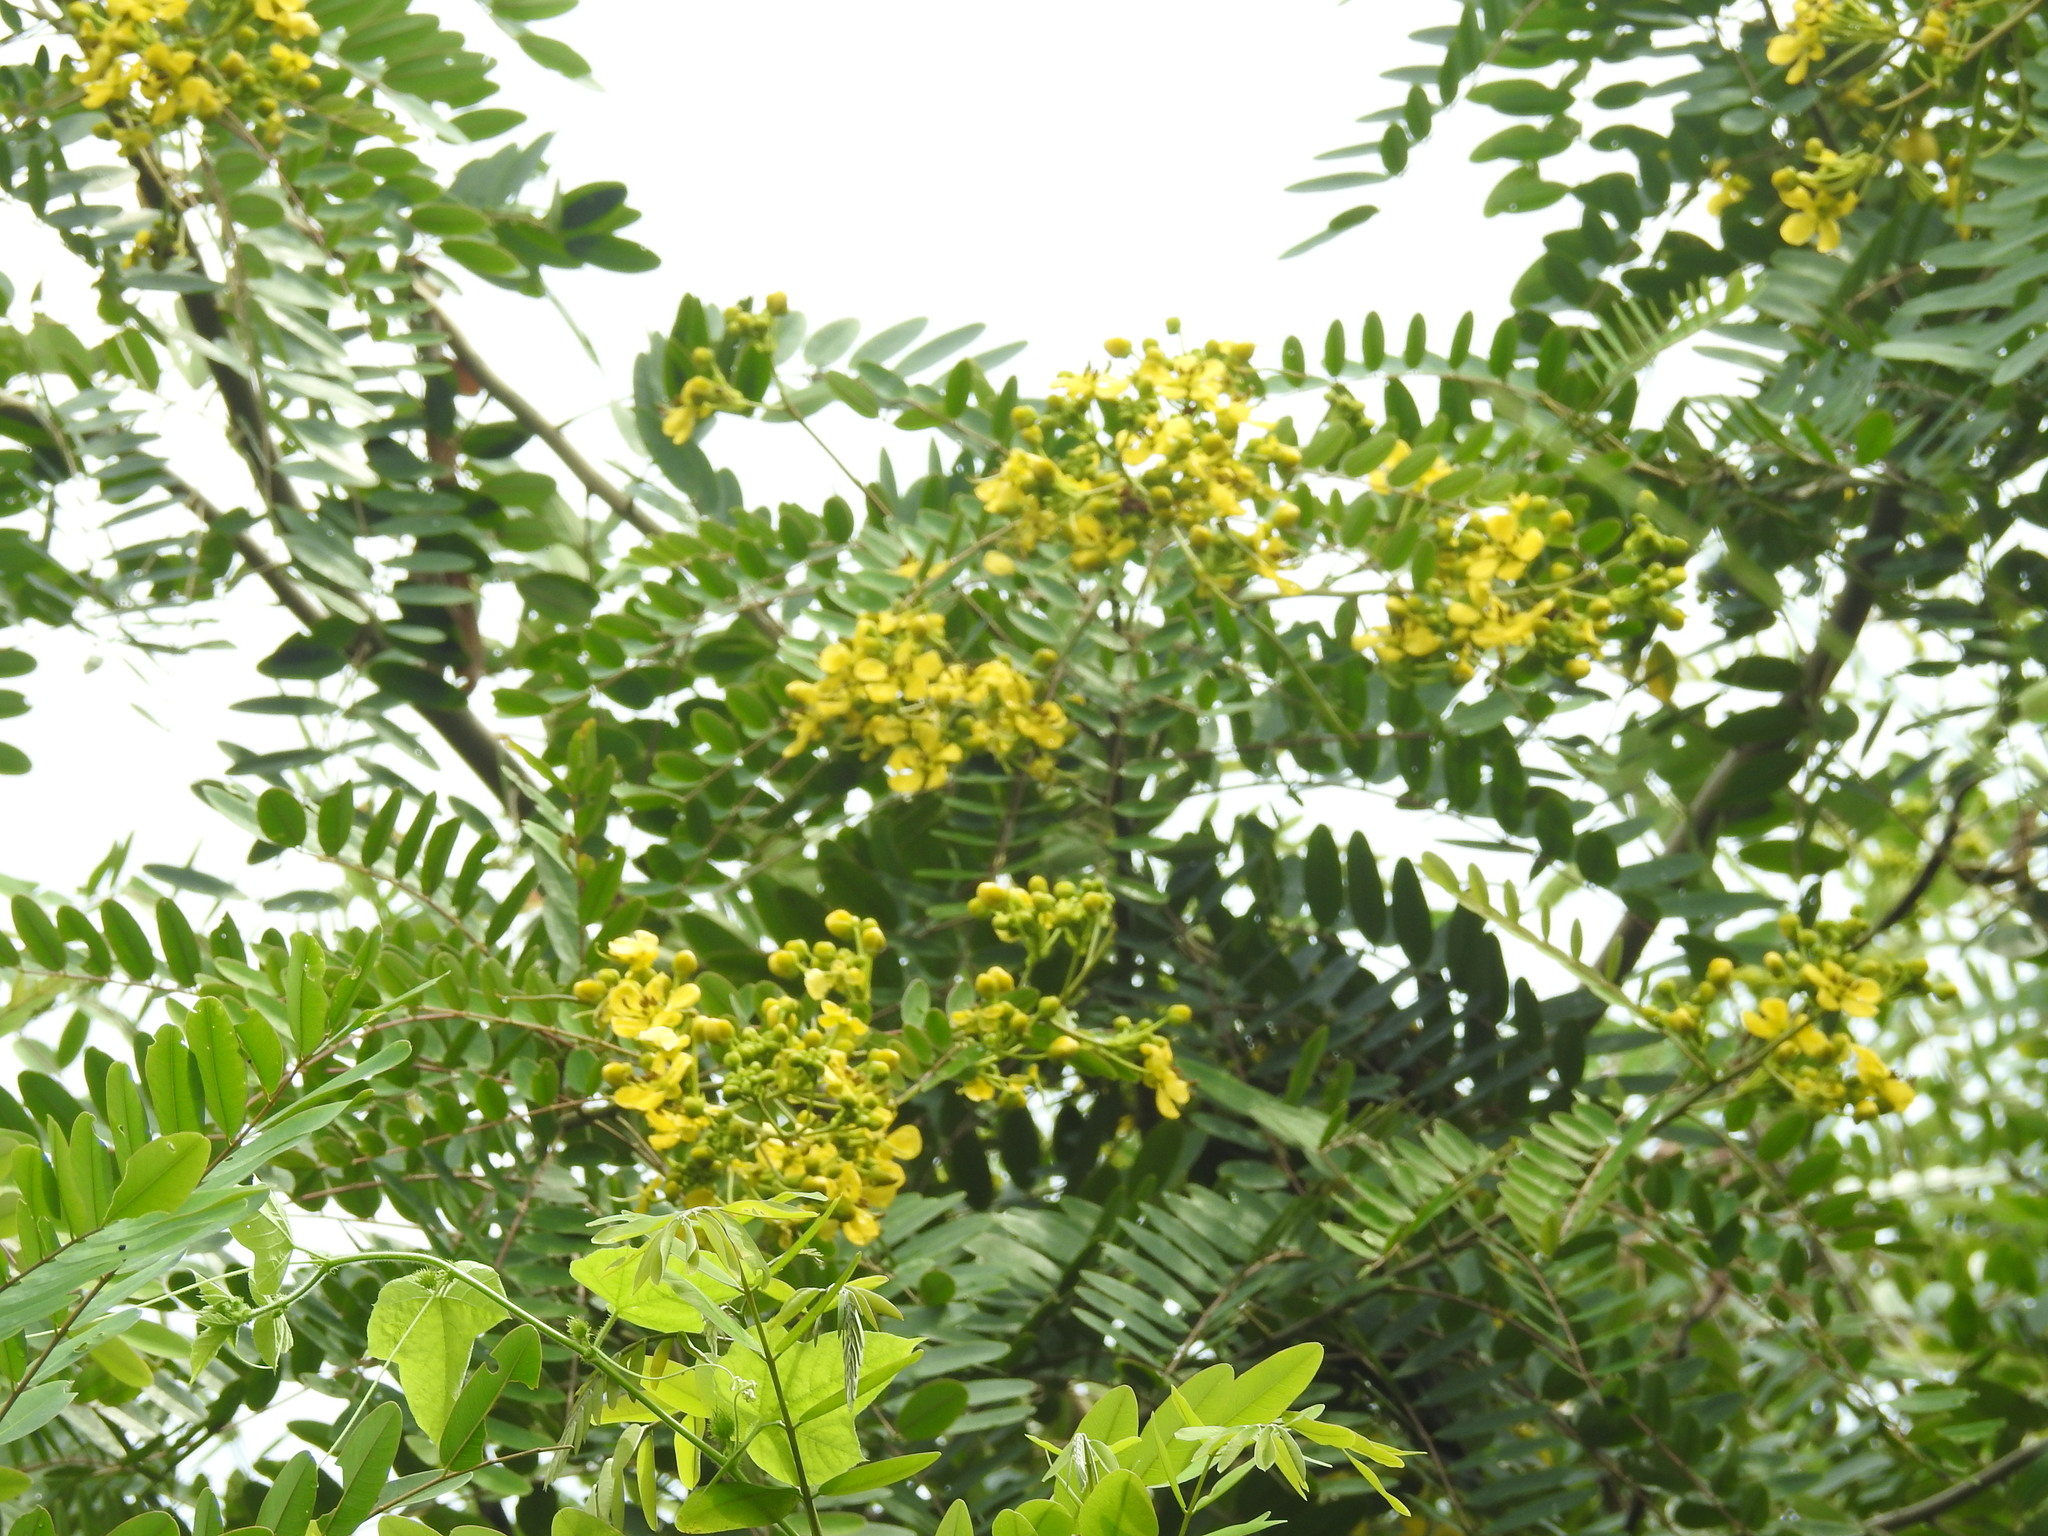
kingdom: Plantae
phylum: Tracheophyta
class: Magnoliopsida
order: Fabales
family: Fabaceae
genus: Senna
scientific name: Senna siamea
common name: Siamese cassia
